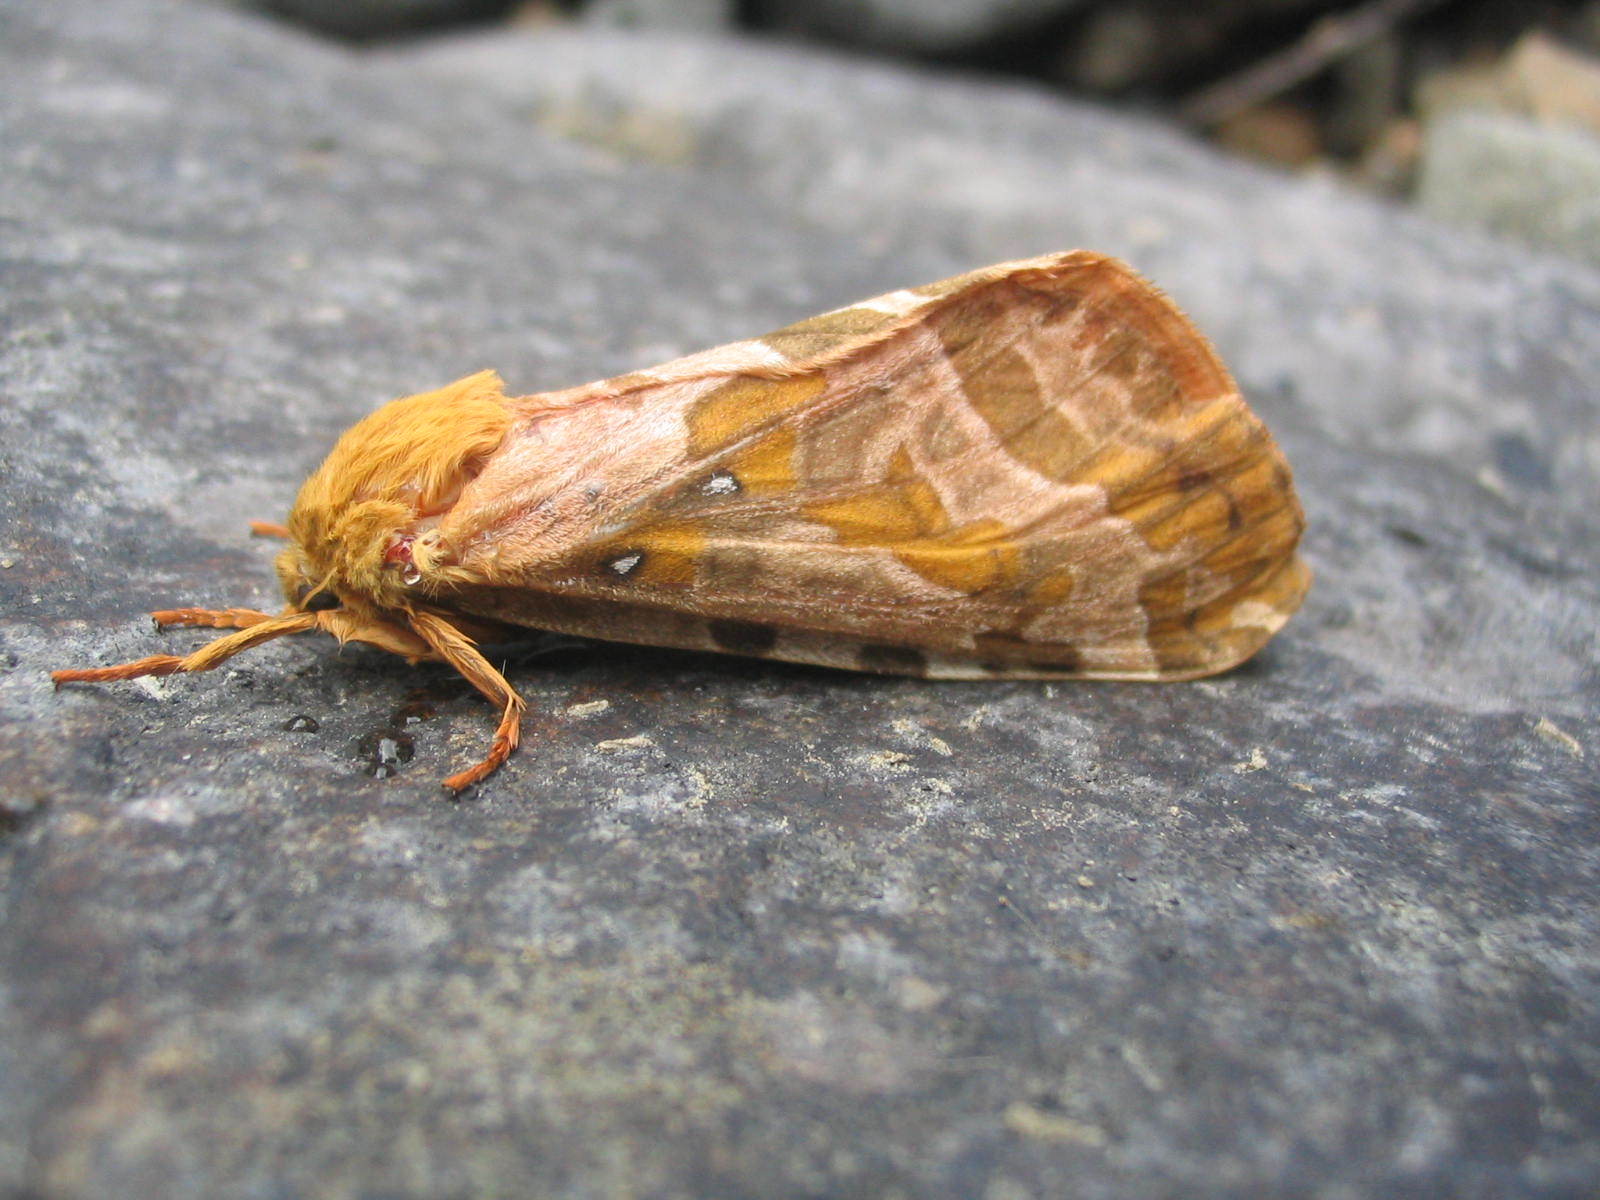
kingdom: Animalia
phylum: Arthropoda
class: Insecta
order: Lepidoptera
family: Hepialidae
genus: Sthenopis
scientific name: Sthenopis purpurascens
